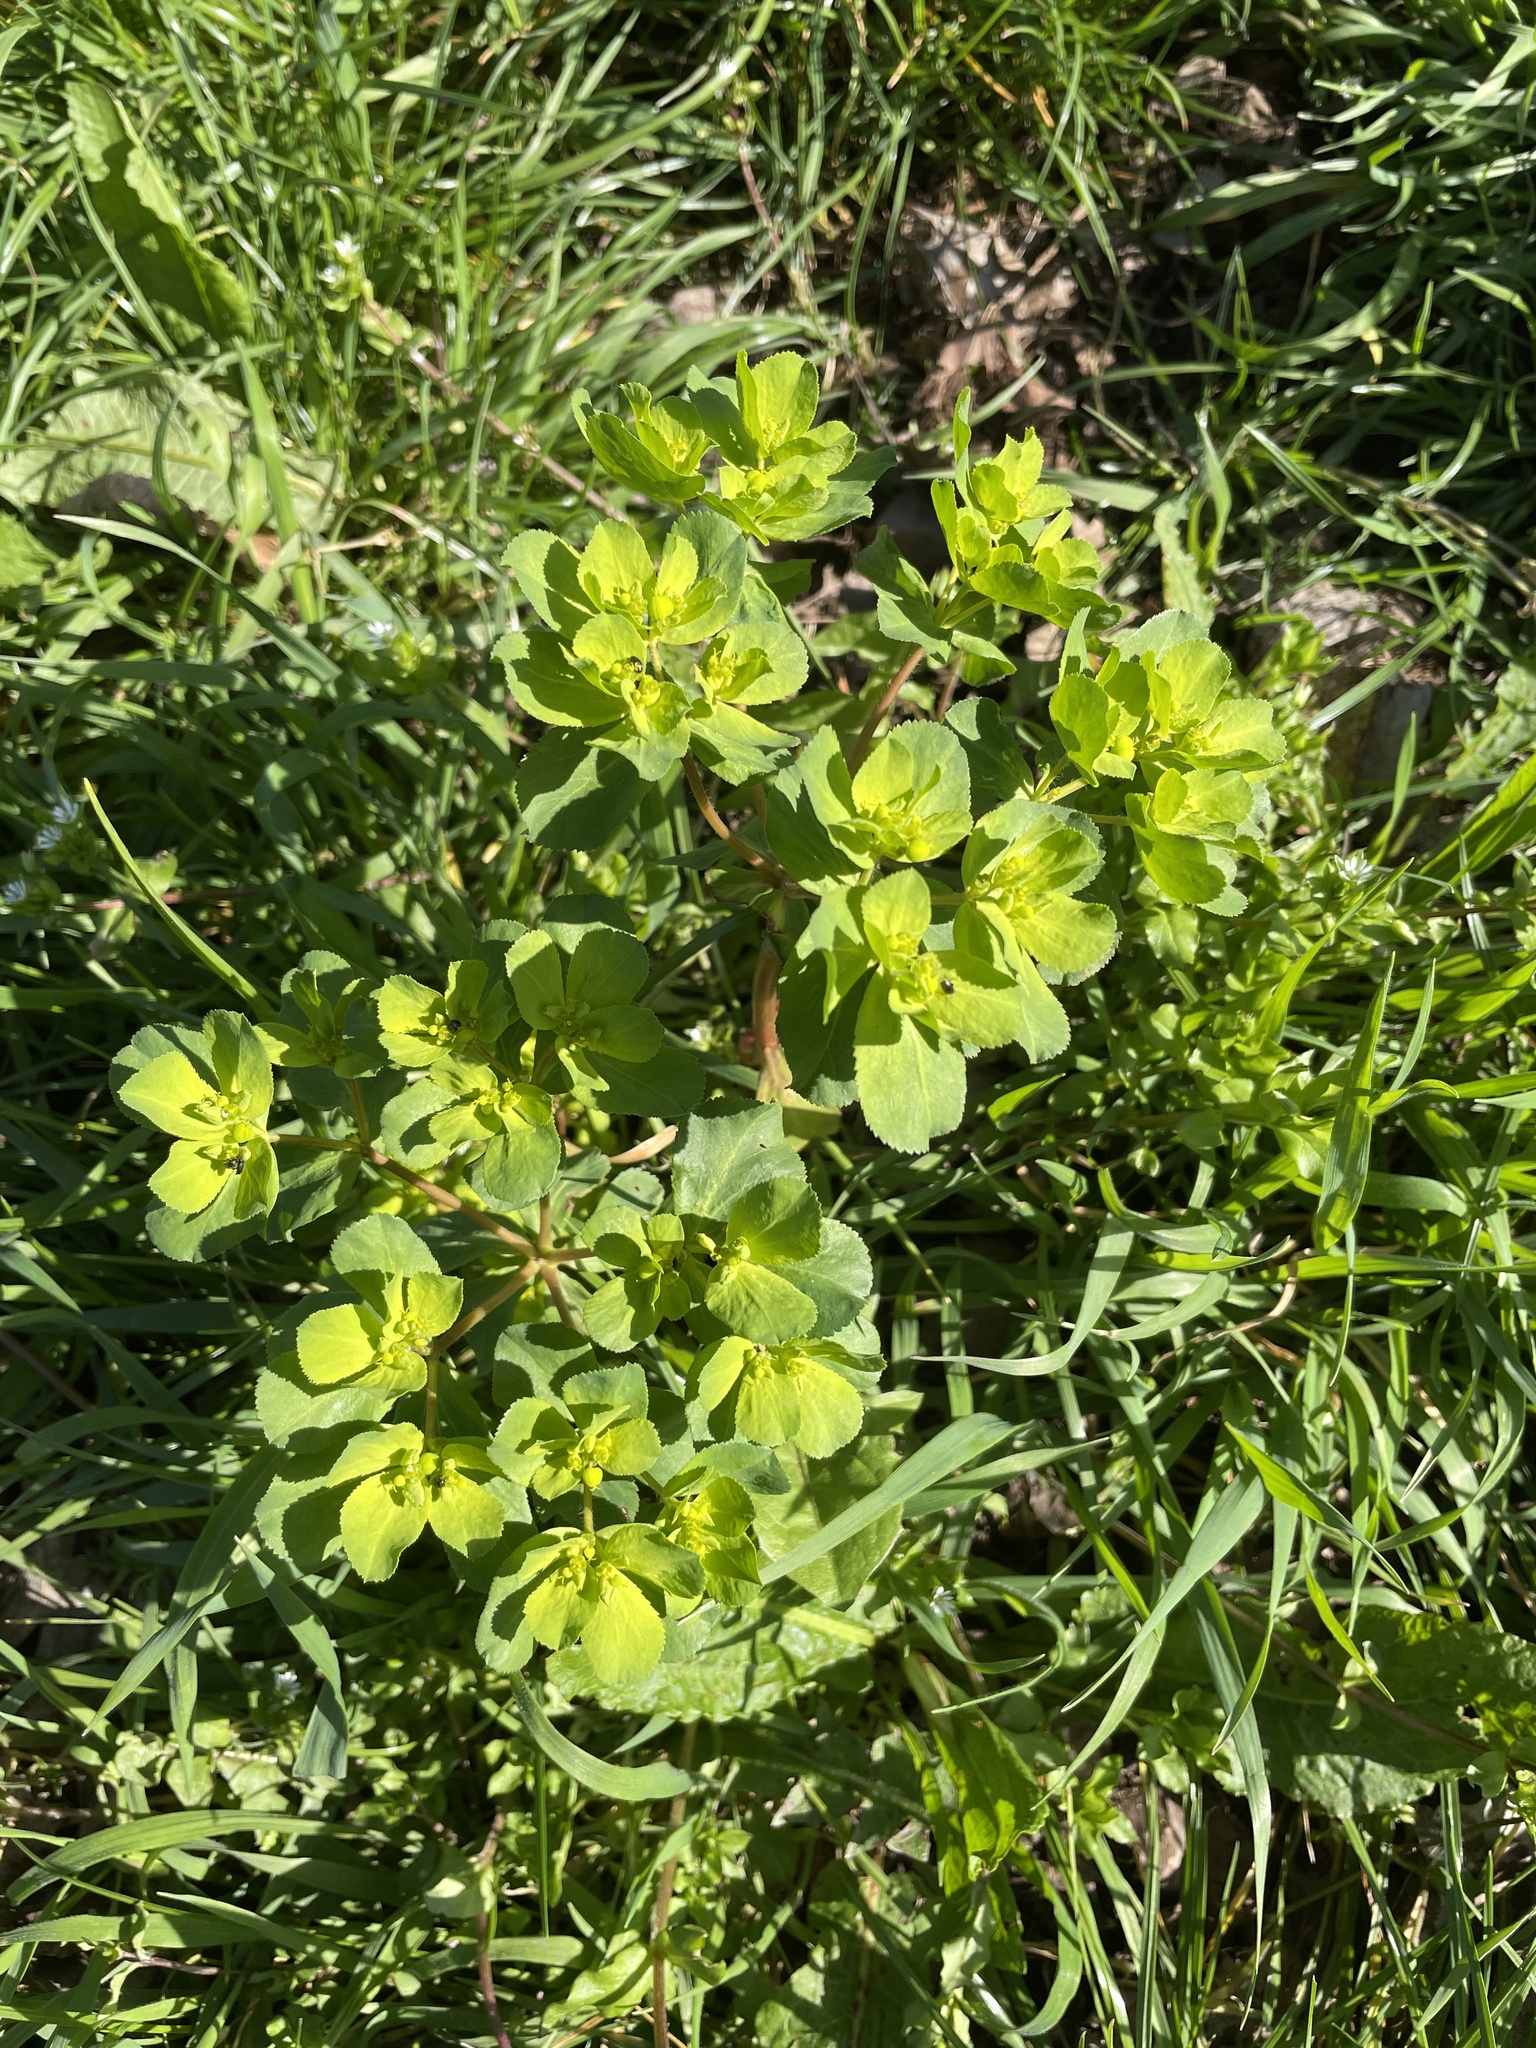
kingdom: Plantae
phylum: Tracheophyta
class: Magnoliopsida
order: Malpighiales
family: Euphorbiaceae
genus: Euphorbia
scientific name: Euphorbia helioscopia
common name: Sun spurge
